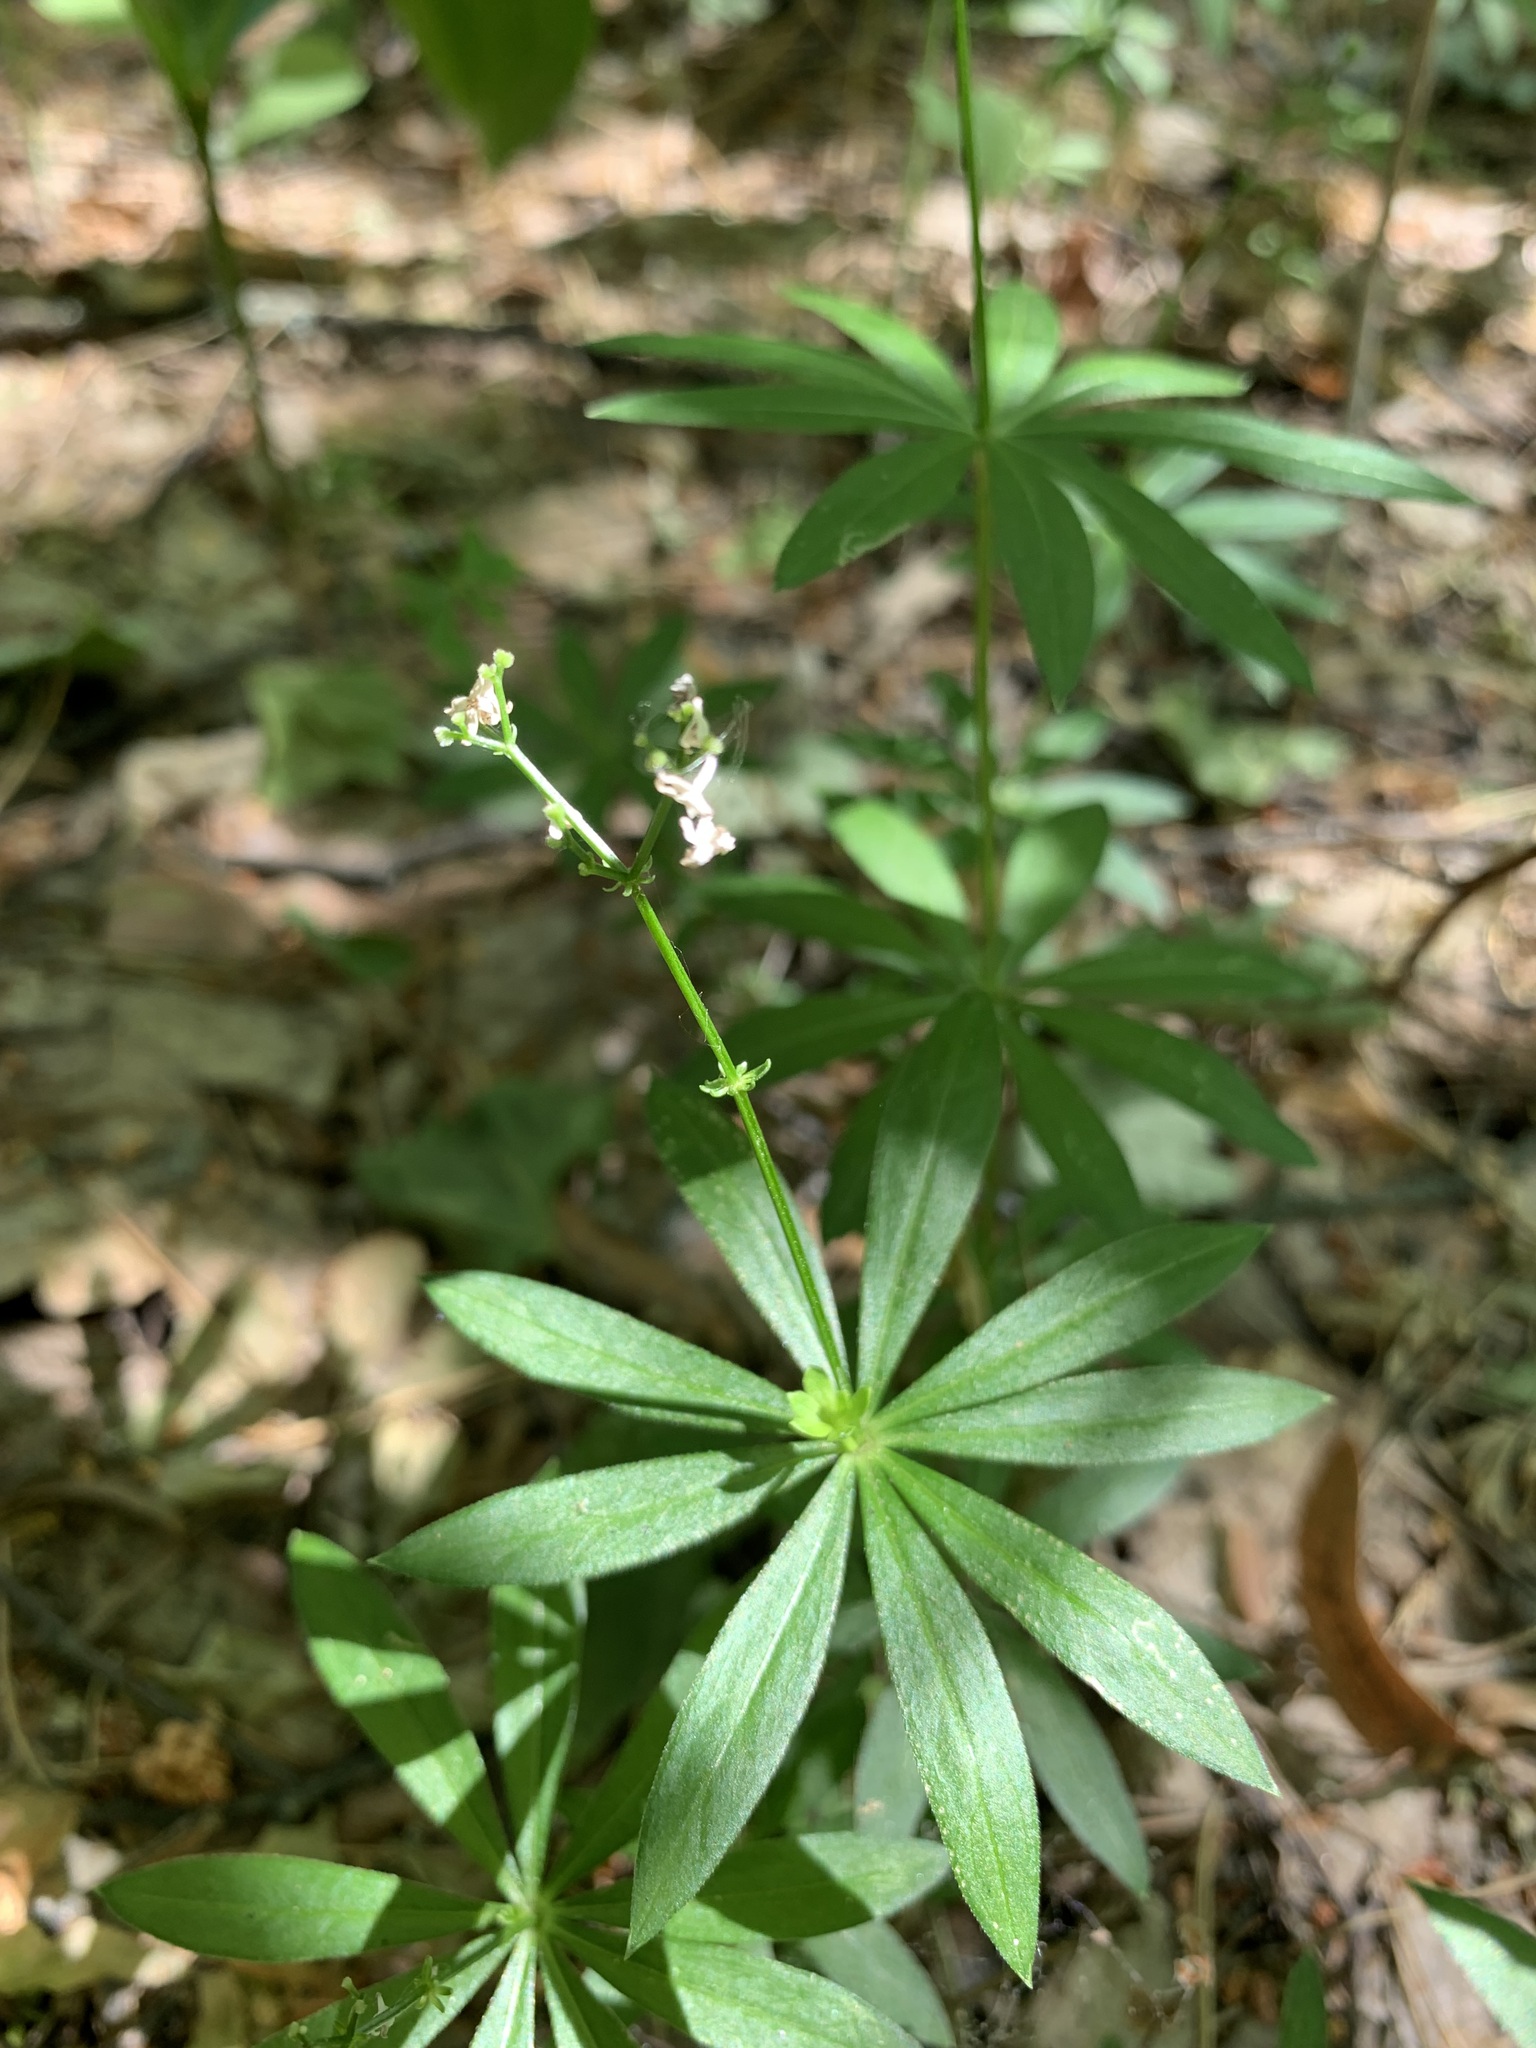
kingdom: Plantae
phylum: Tracheophyta
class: Magnoliopsida
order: Gentianales
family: Rubiaceae
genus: Galium
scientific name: Galium odoratum
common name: Sweet woodruff
